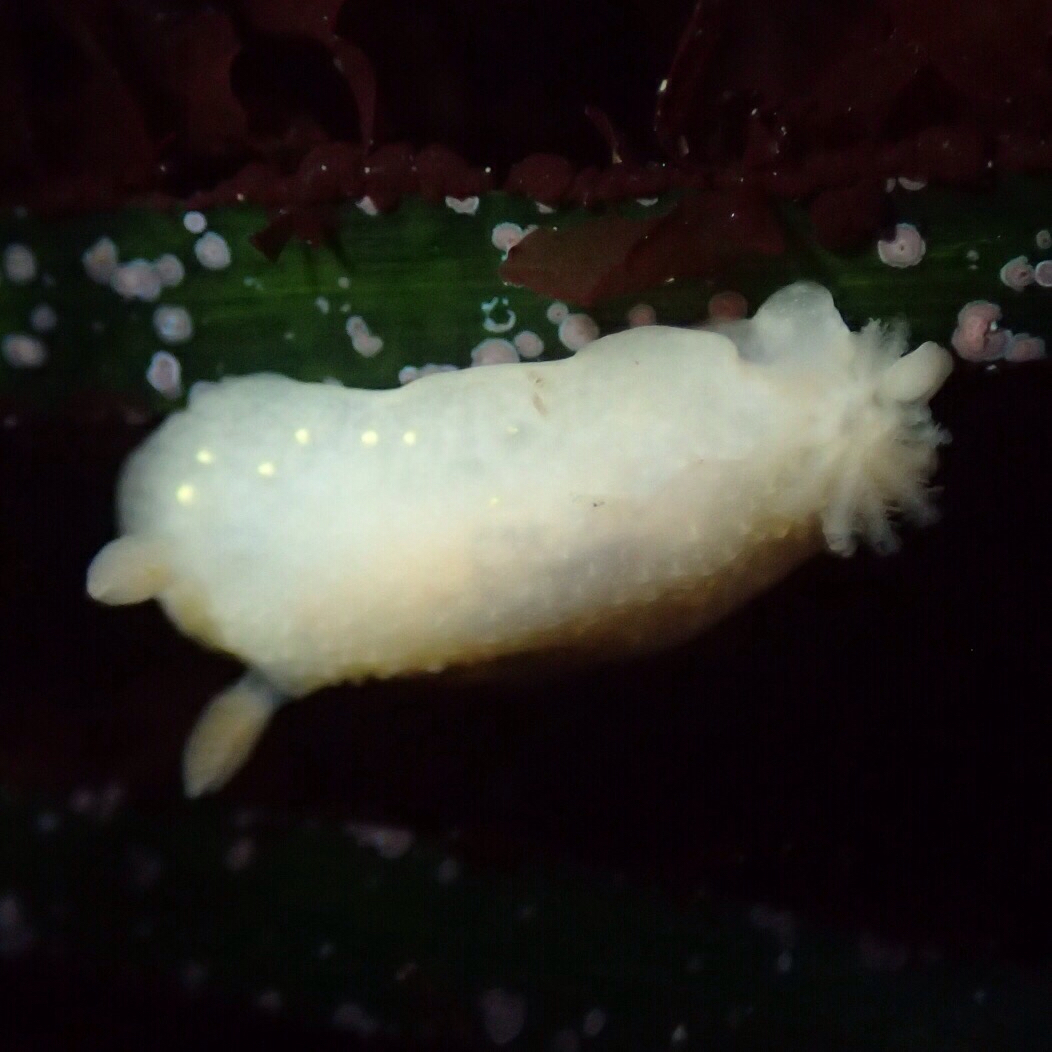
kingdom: Animalia
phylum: Mollusca
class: Gastropoda
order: Nudibranchia
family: Cadlinidae
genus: Cadlina
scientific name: Cadlina modesta
